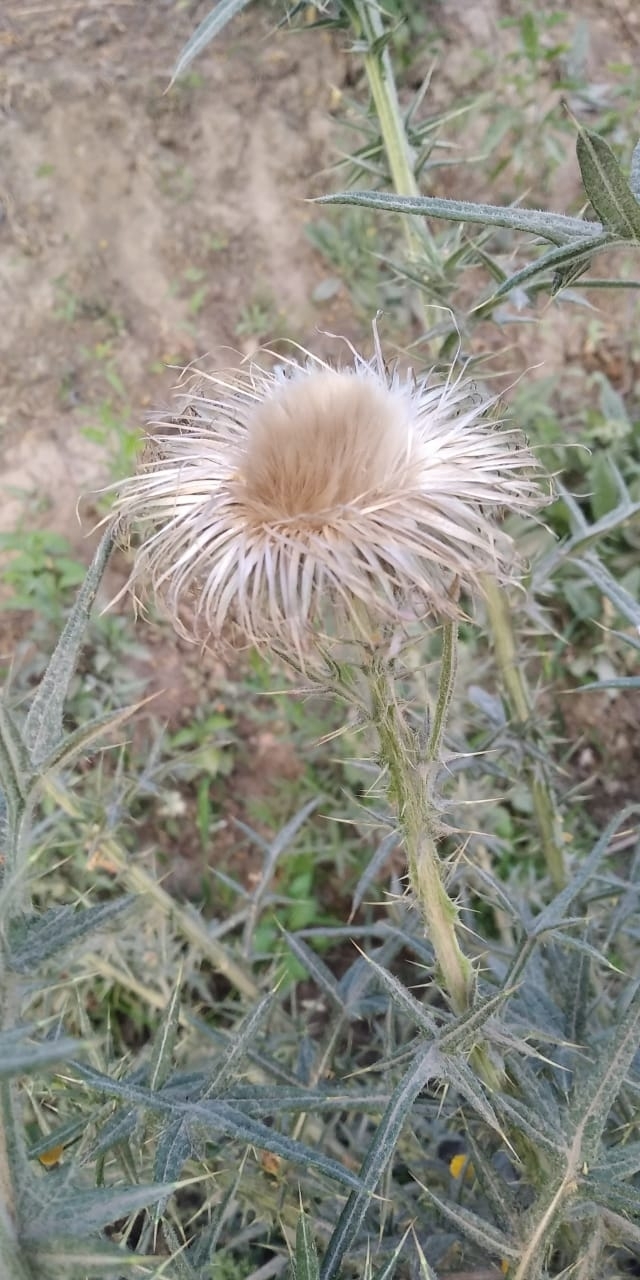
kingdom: Plantae
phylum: Tracheophyta
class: Magnoliopsida
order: Asterales
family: Asteraceae
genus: Cirsium
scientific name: Cirsium vulgare
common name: Bull thistle
